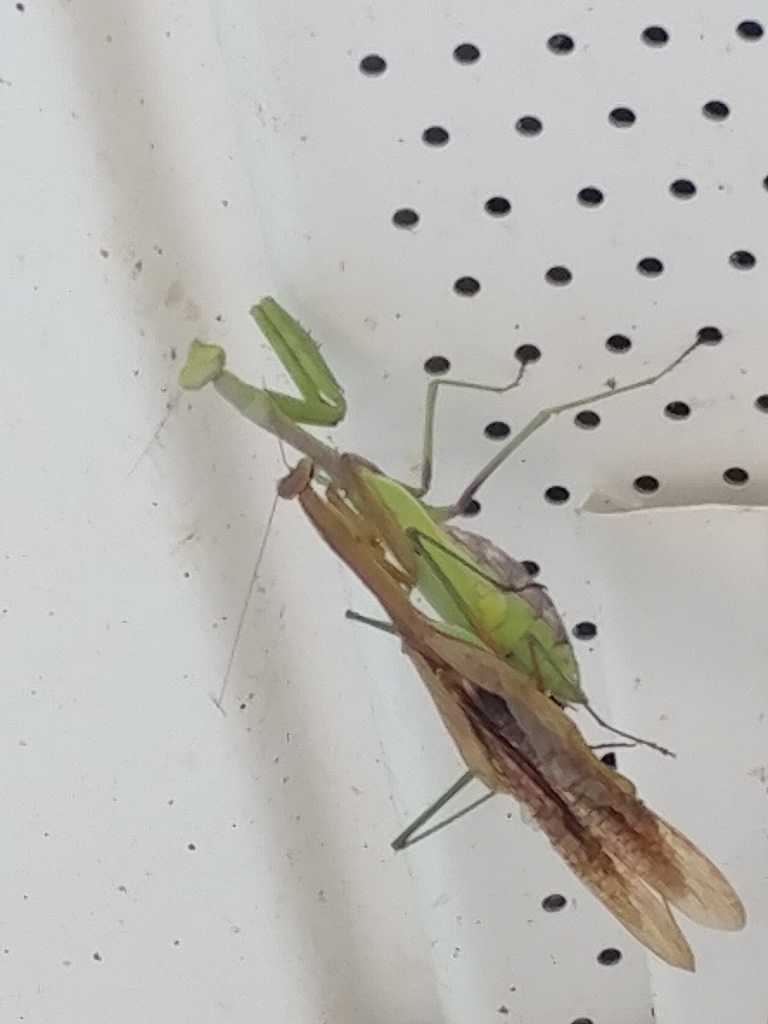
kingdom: Animalia
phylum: Arthropoda
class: Insecta
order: Mantodea
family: Mantidae
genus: Stagmomantis
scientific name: Stagmomantis carolina
